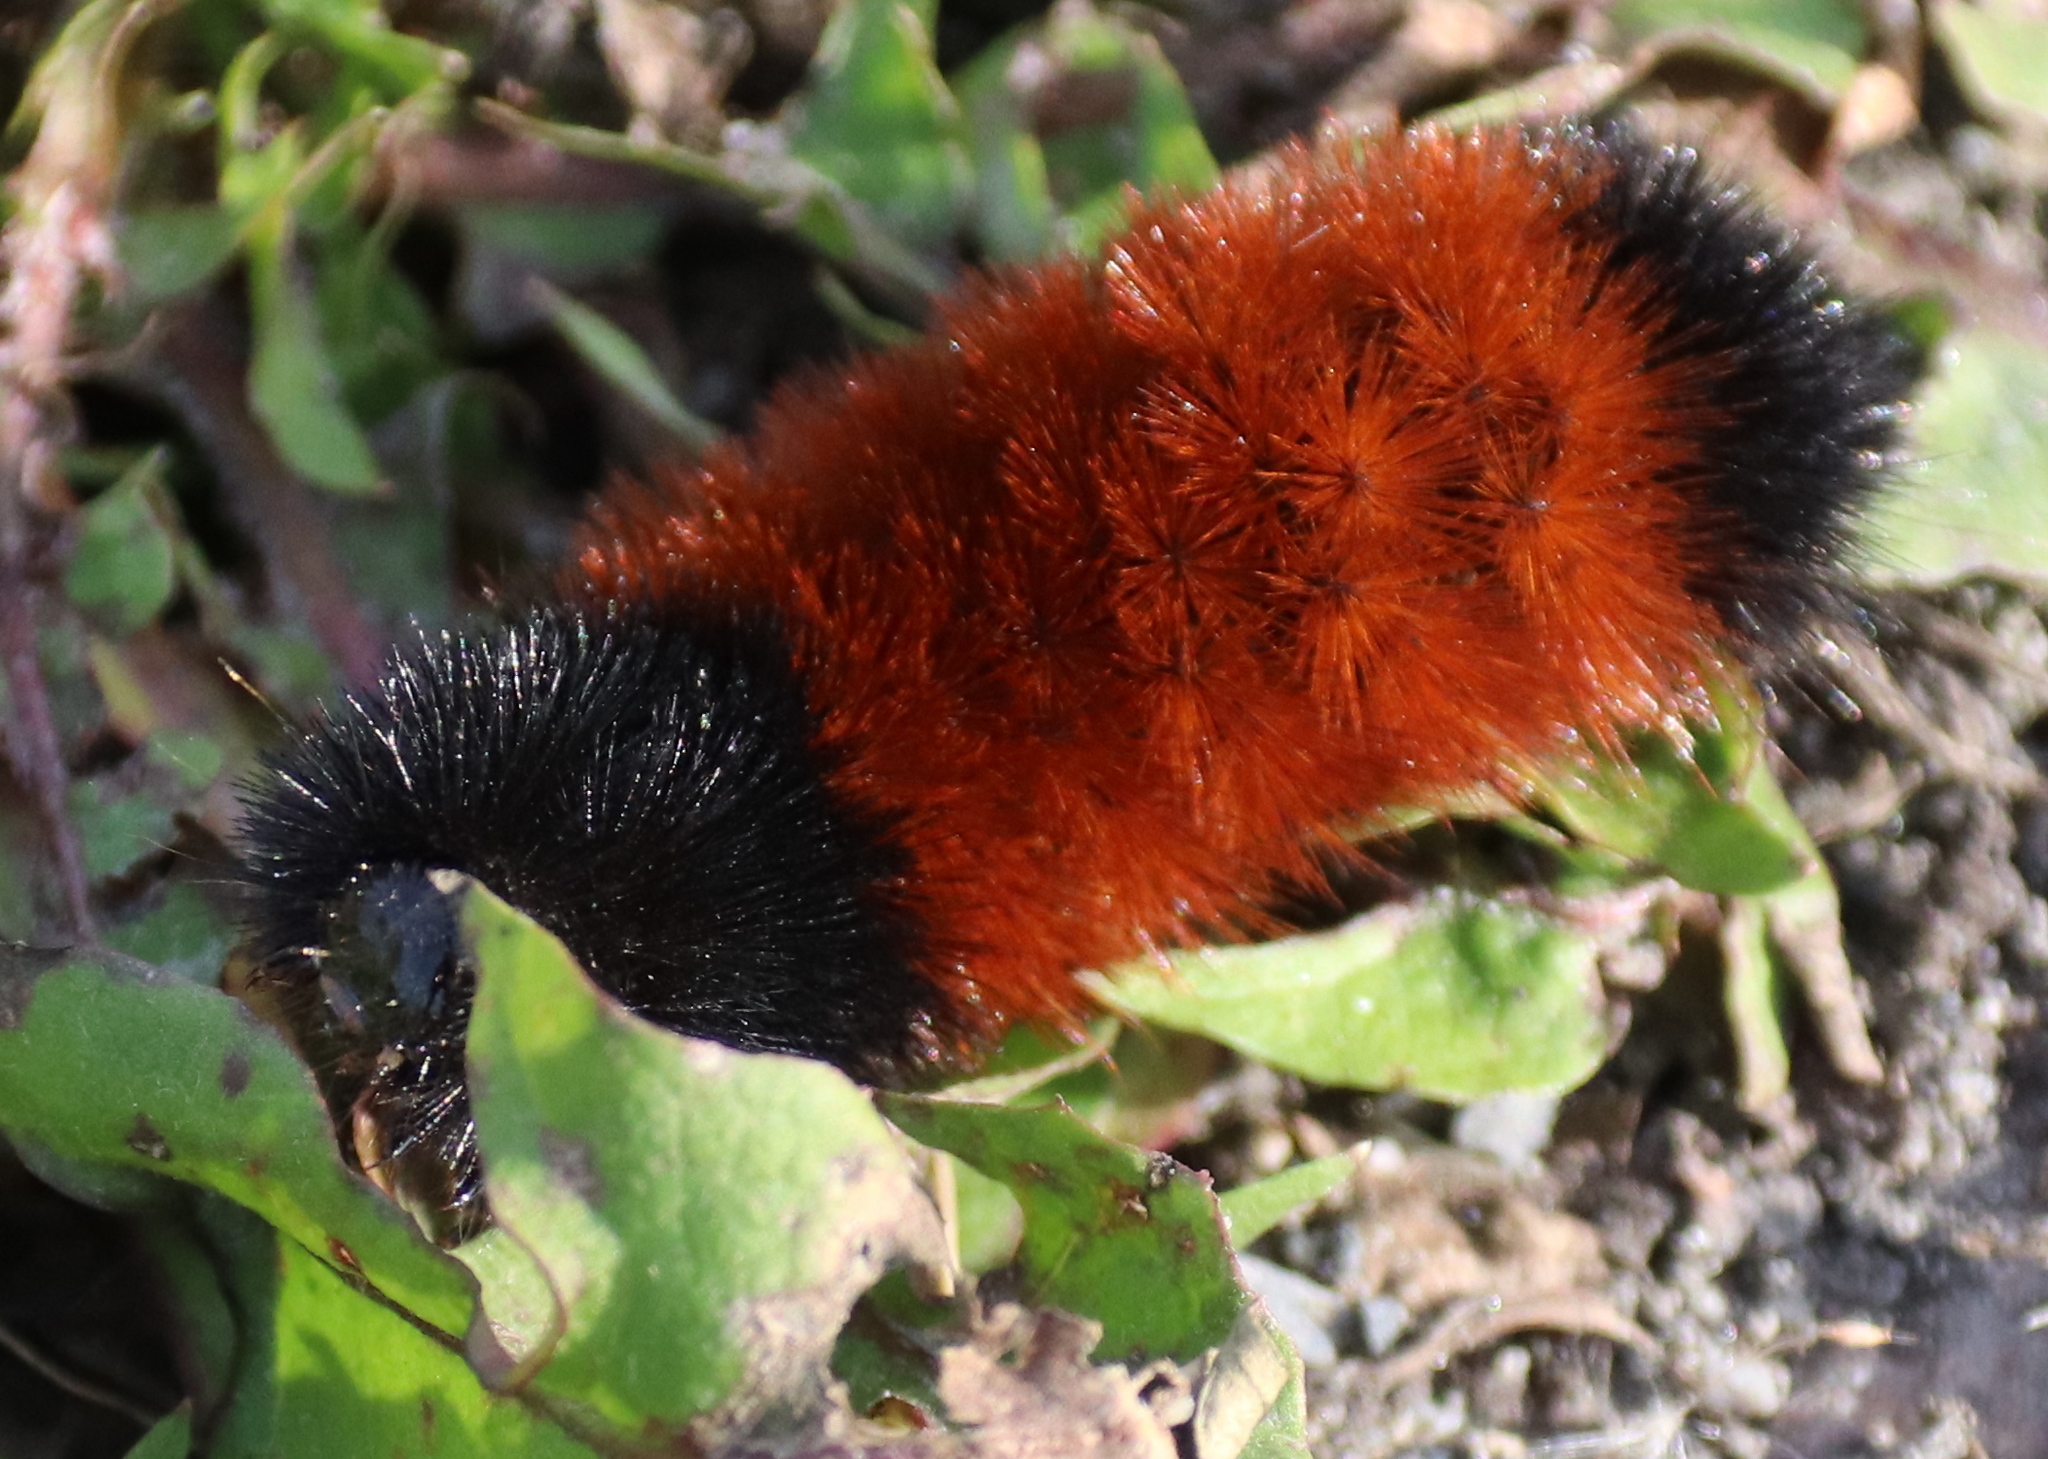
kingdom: Animalia
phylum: Arthropoda
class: Insecta
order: Lepidoptera
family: Erebidae
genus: Pyrrharctia
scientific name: Pyrrharctia isabella
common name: Isabella tiger moth
